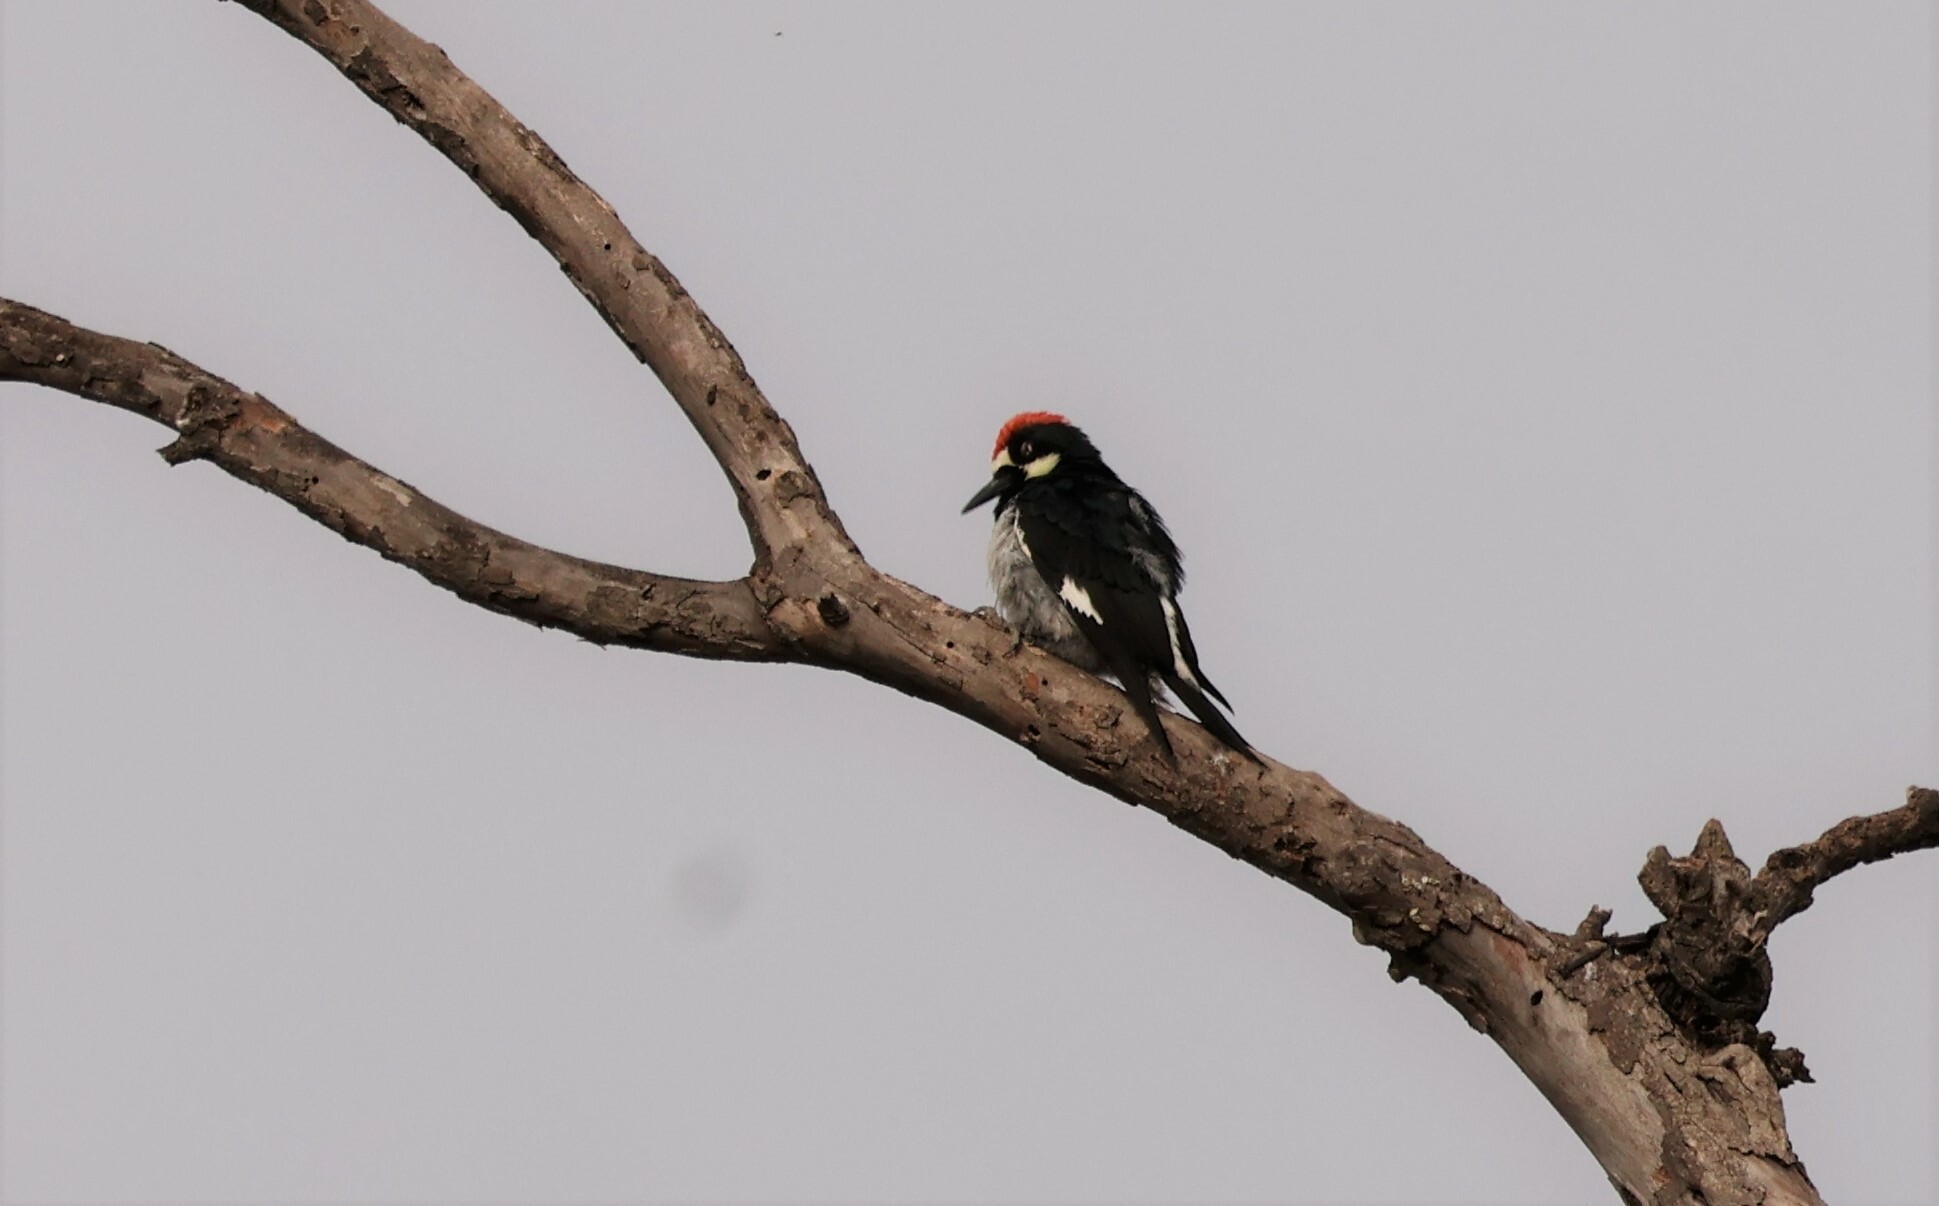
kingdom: Animalia
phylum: Chordata
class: Aves
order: Piciformes
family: Picidae
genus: Melanerpes
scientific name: Melanerpes formicivorus
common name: Acorn woodpecker
